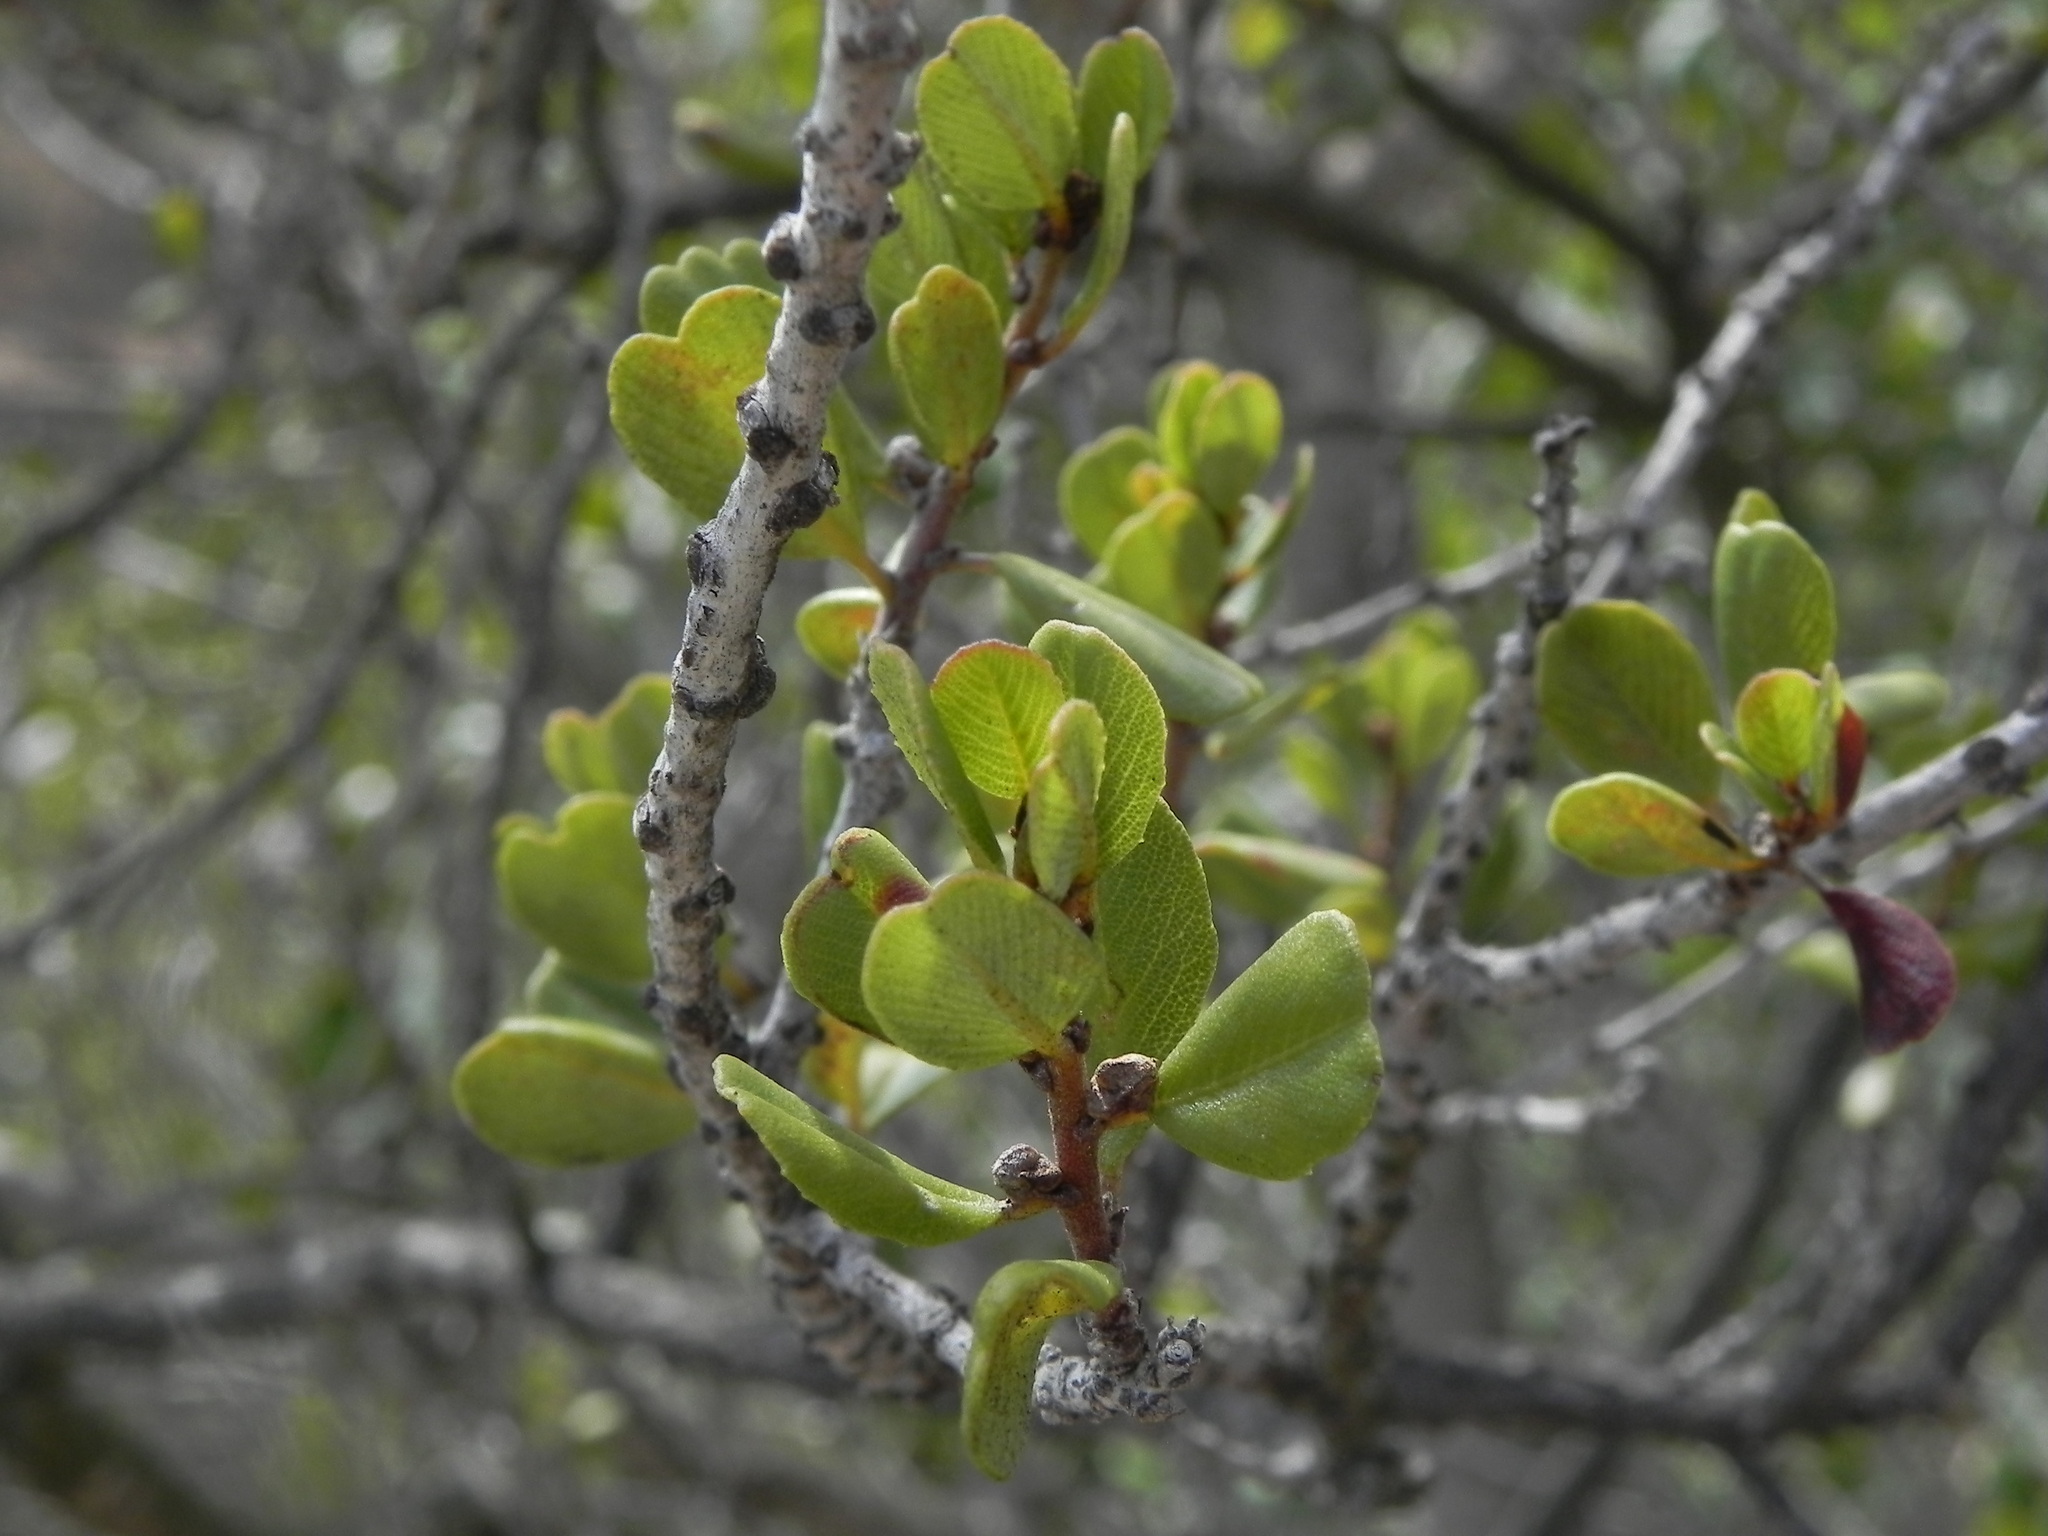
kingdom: Plantae
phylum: Tracheophyta
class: Magnoliopsida
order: Rosales
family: Rhamnaceae
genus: Ceanothus
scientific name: Ceanothus verrucosus
